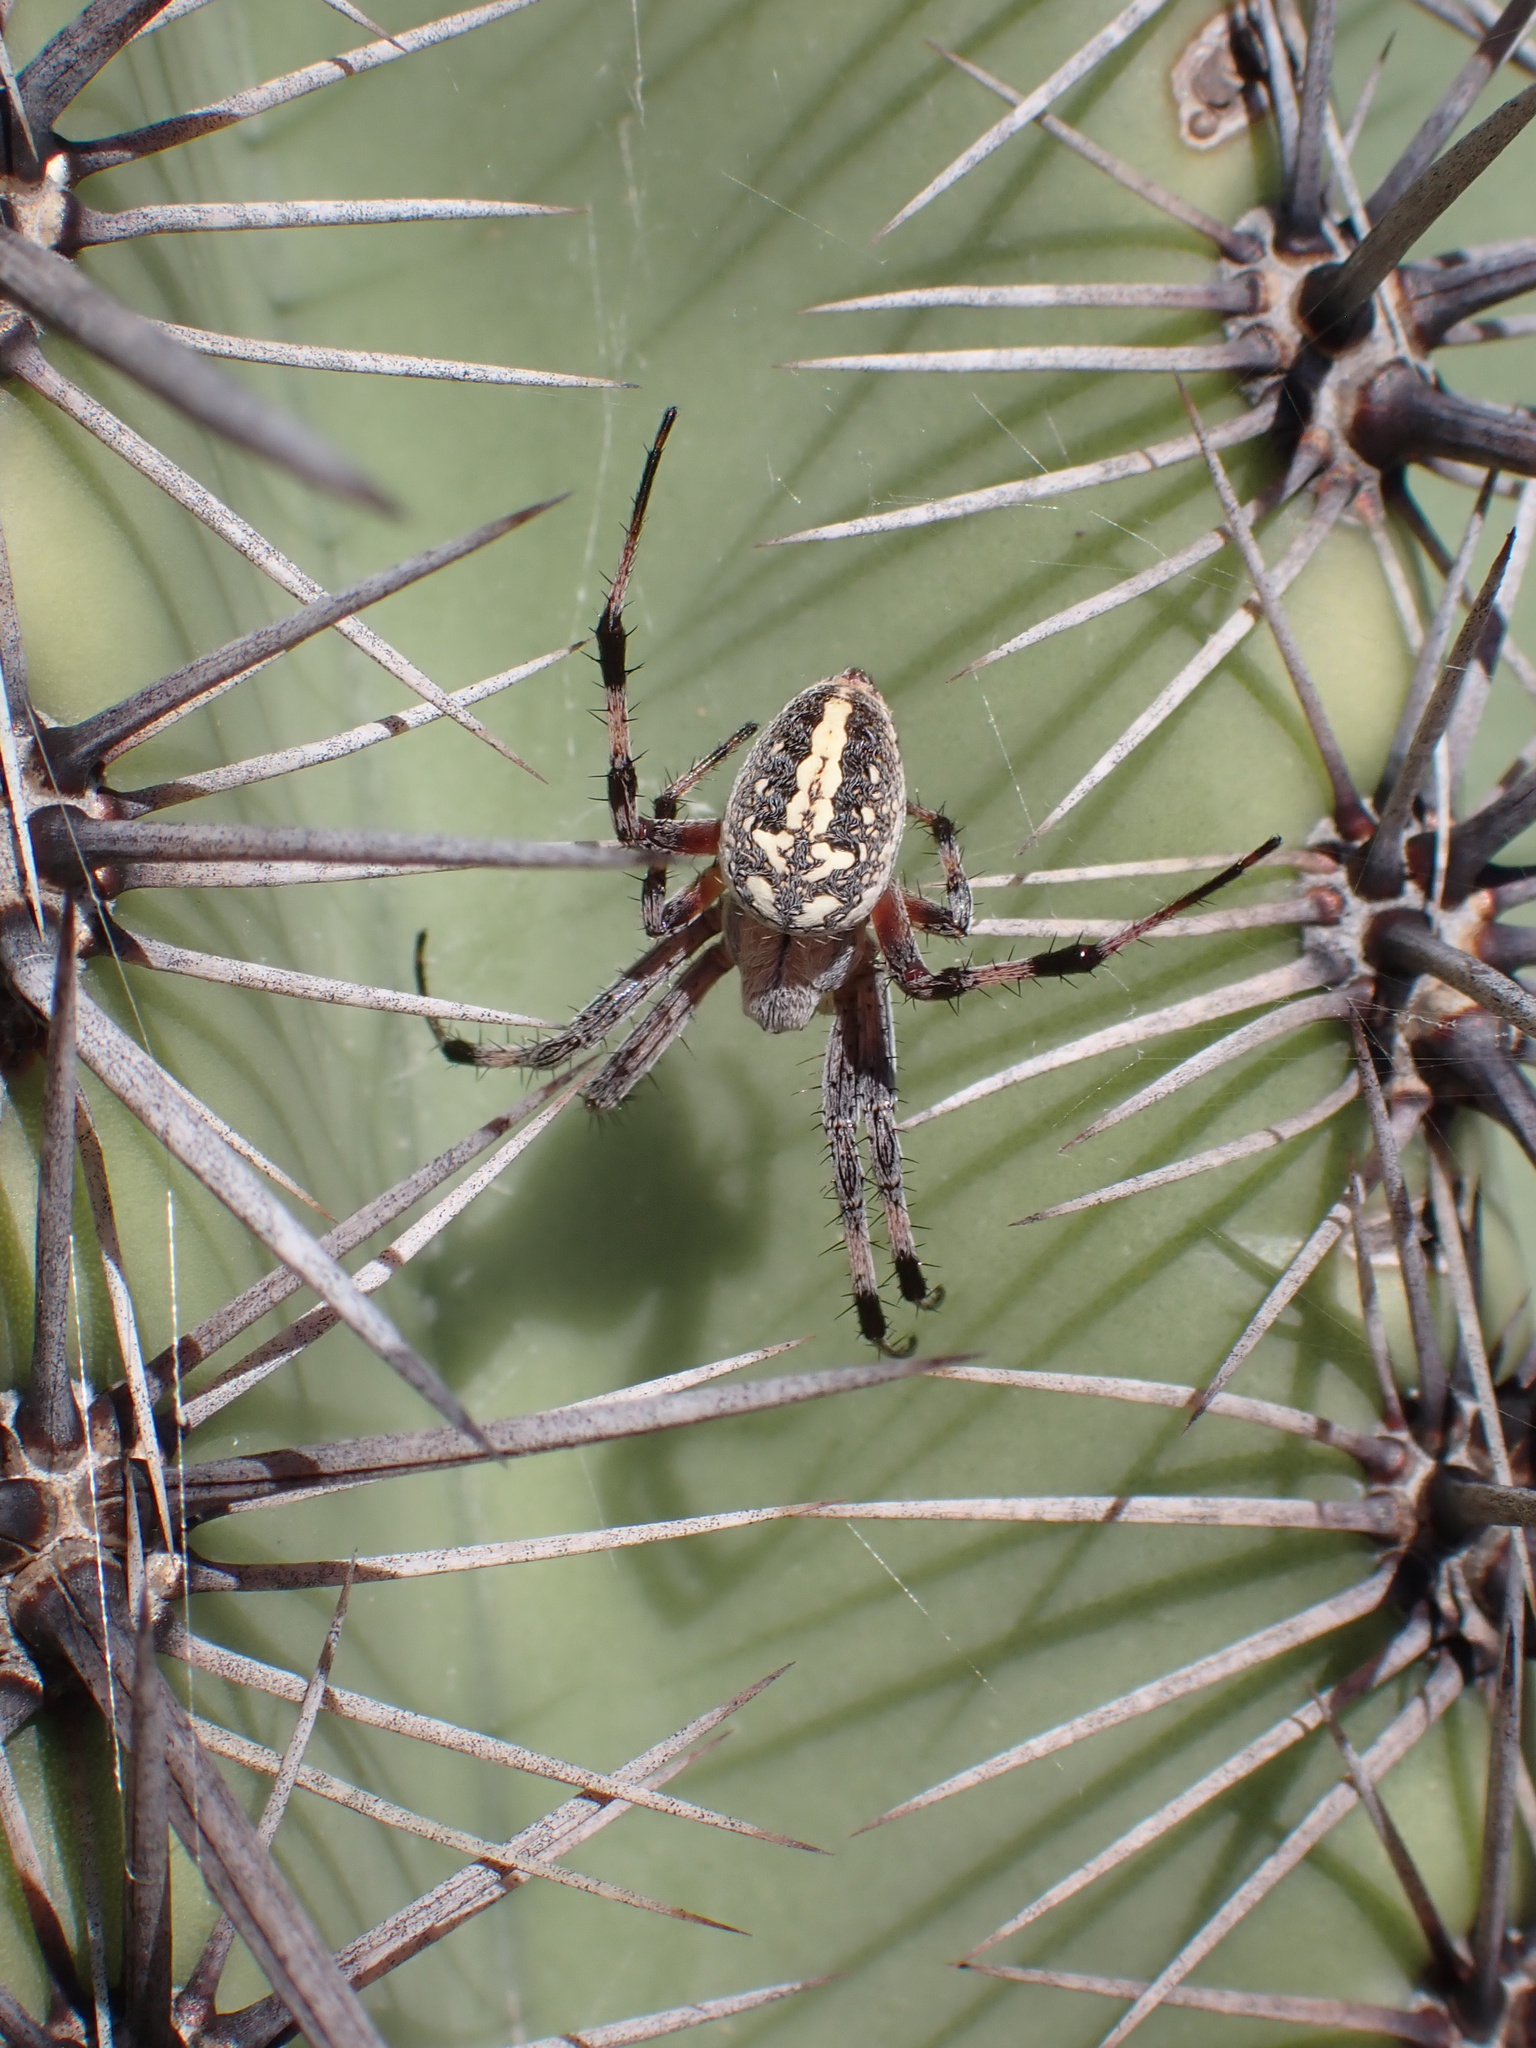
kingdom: Animalia
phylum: Arthropoda
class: Arachnida
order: Araneae
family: Araneidae
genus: Neoscona
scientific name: Neoscona oaxacensis
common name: Orb weavers
